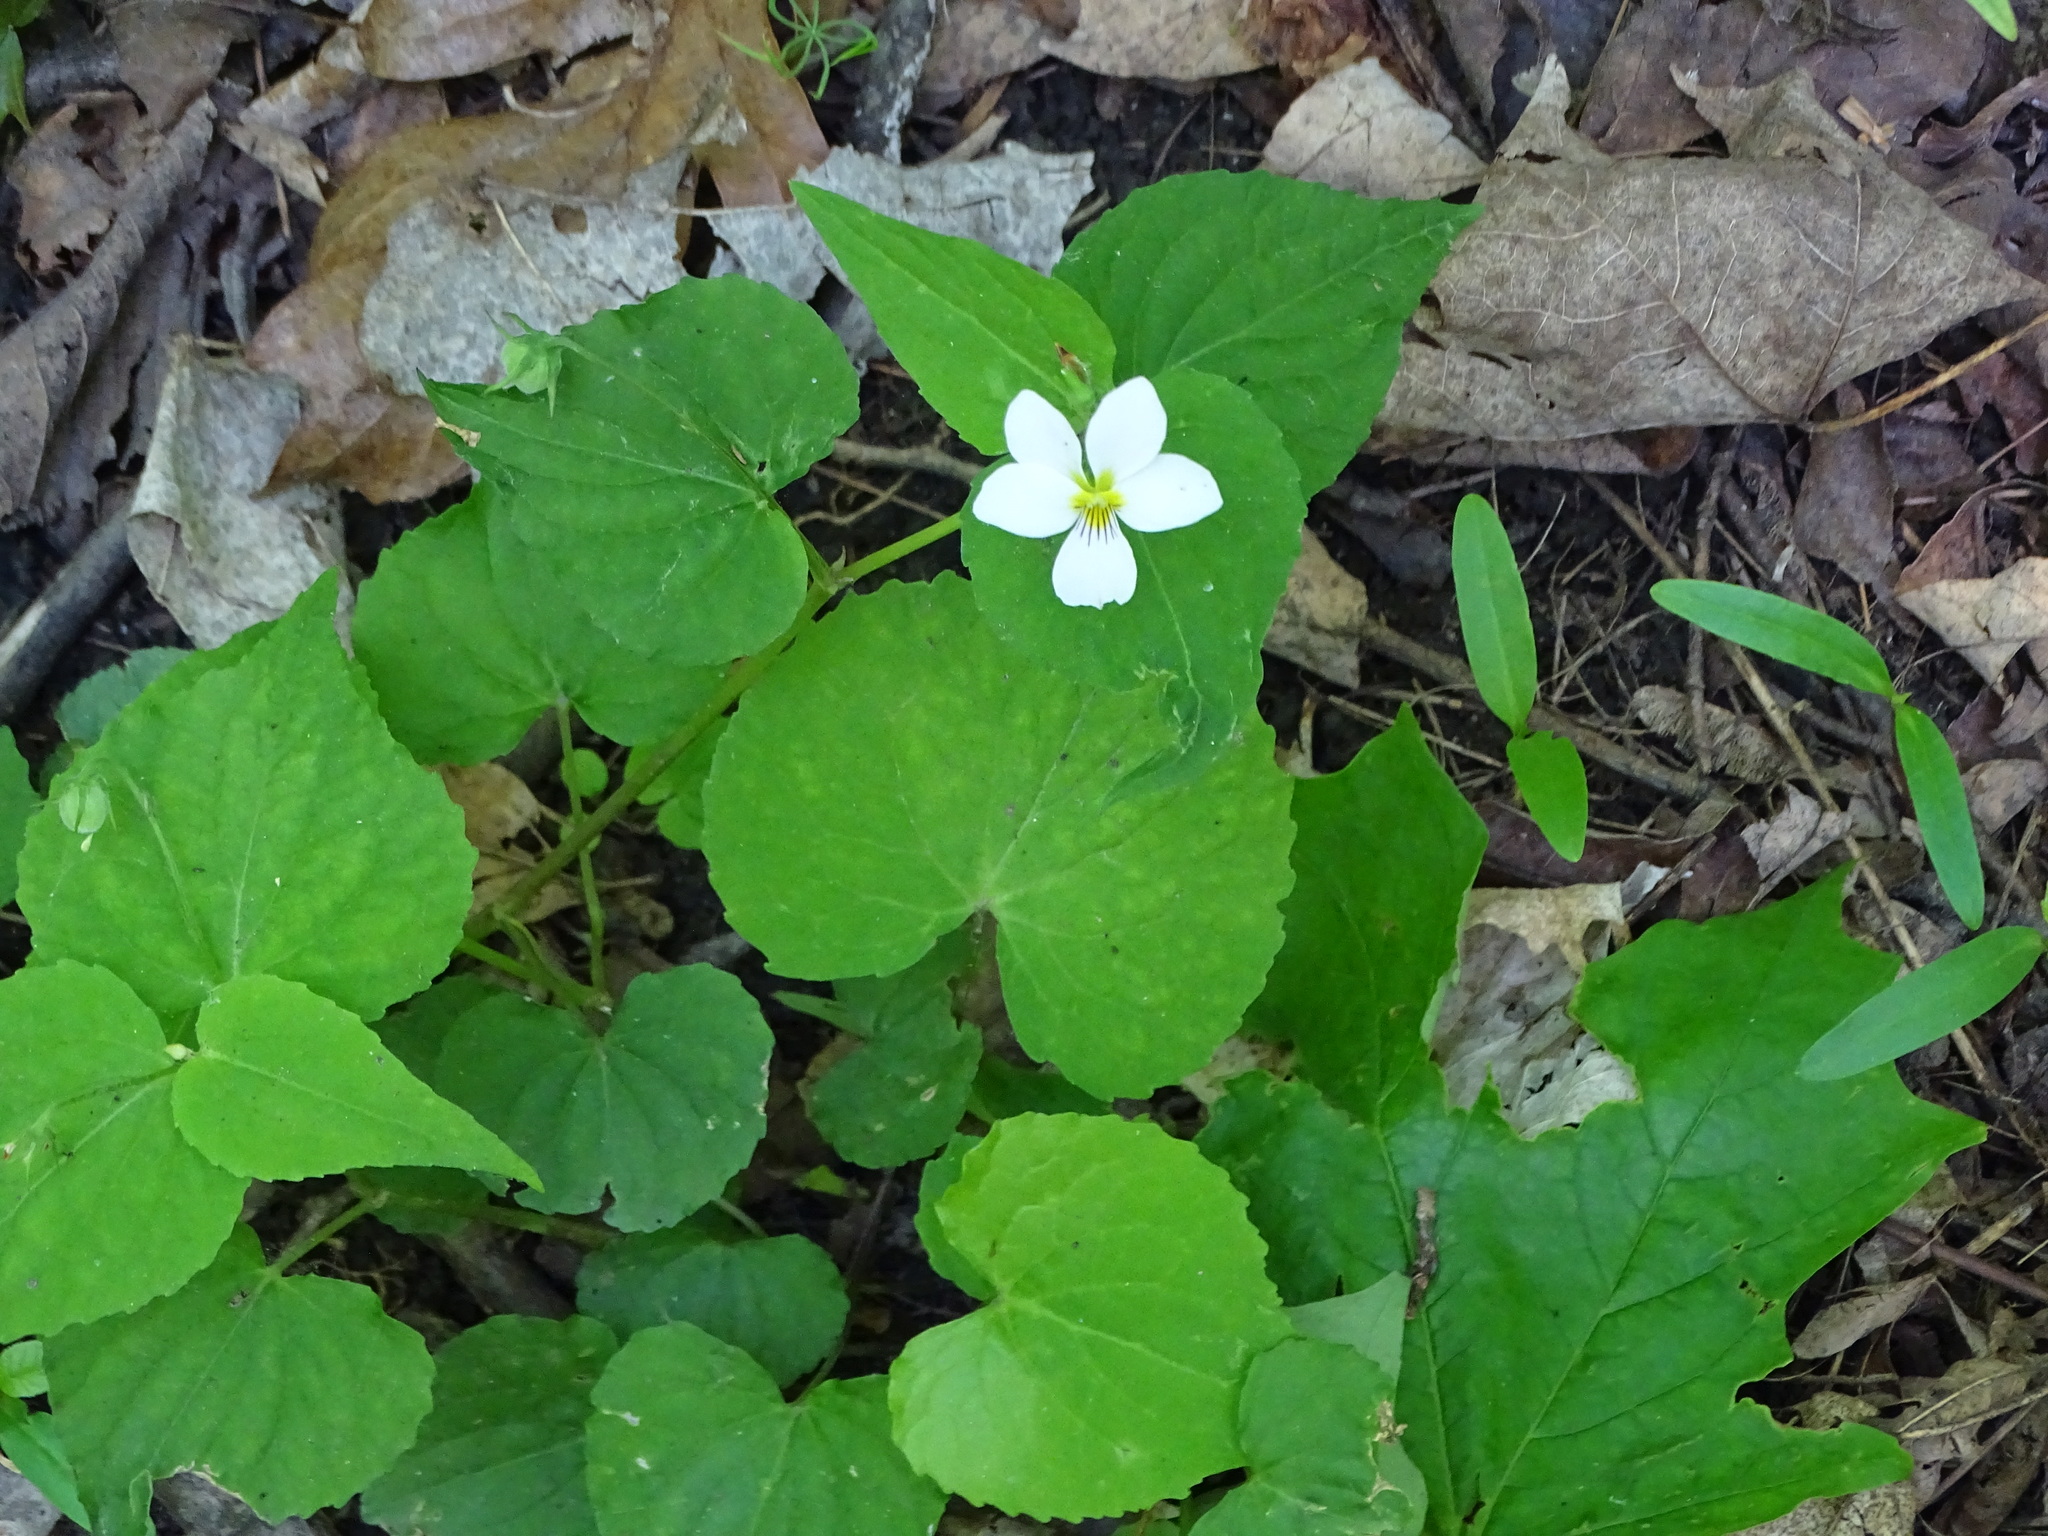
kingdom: Plantae
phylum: Tracheophyta
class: Magnoliopsida
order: Malpighiales
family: Violaceae
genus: Viola
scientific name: Viola canadensis
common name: Canada violet
